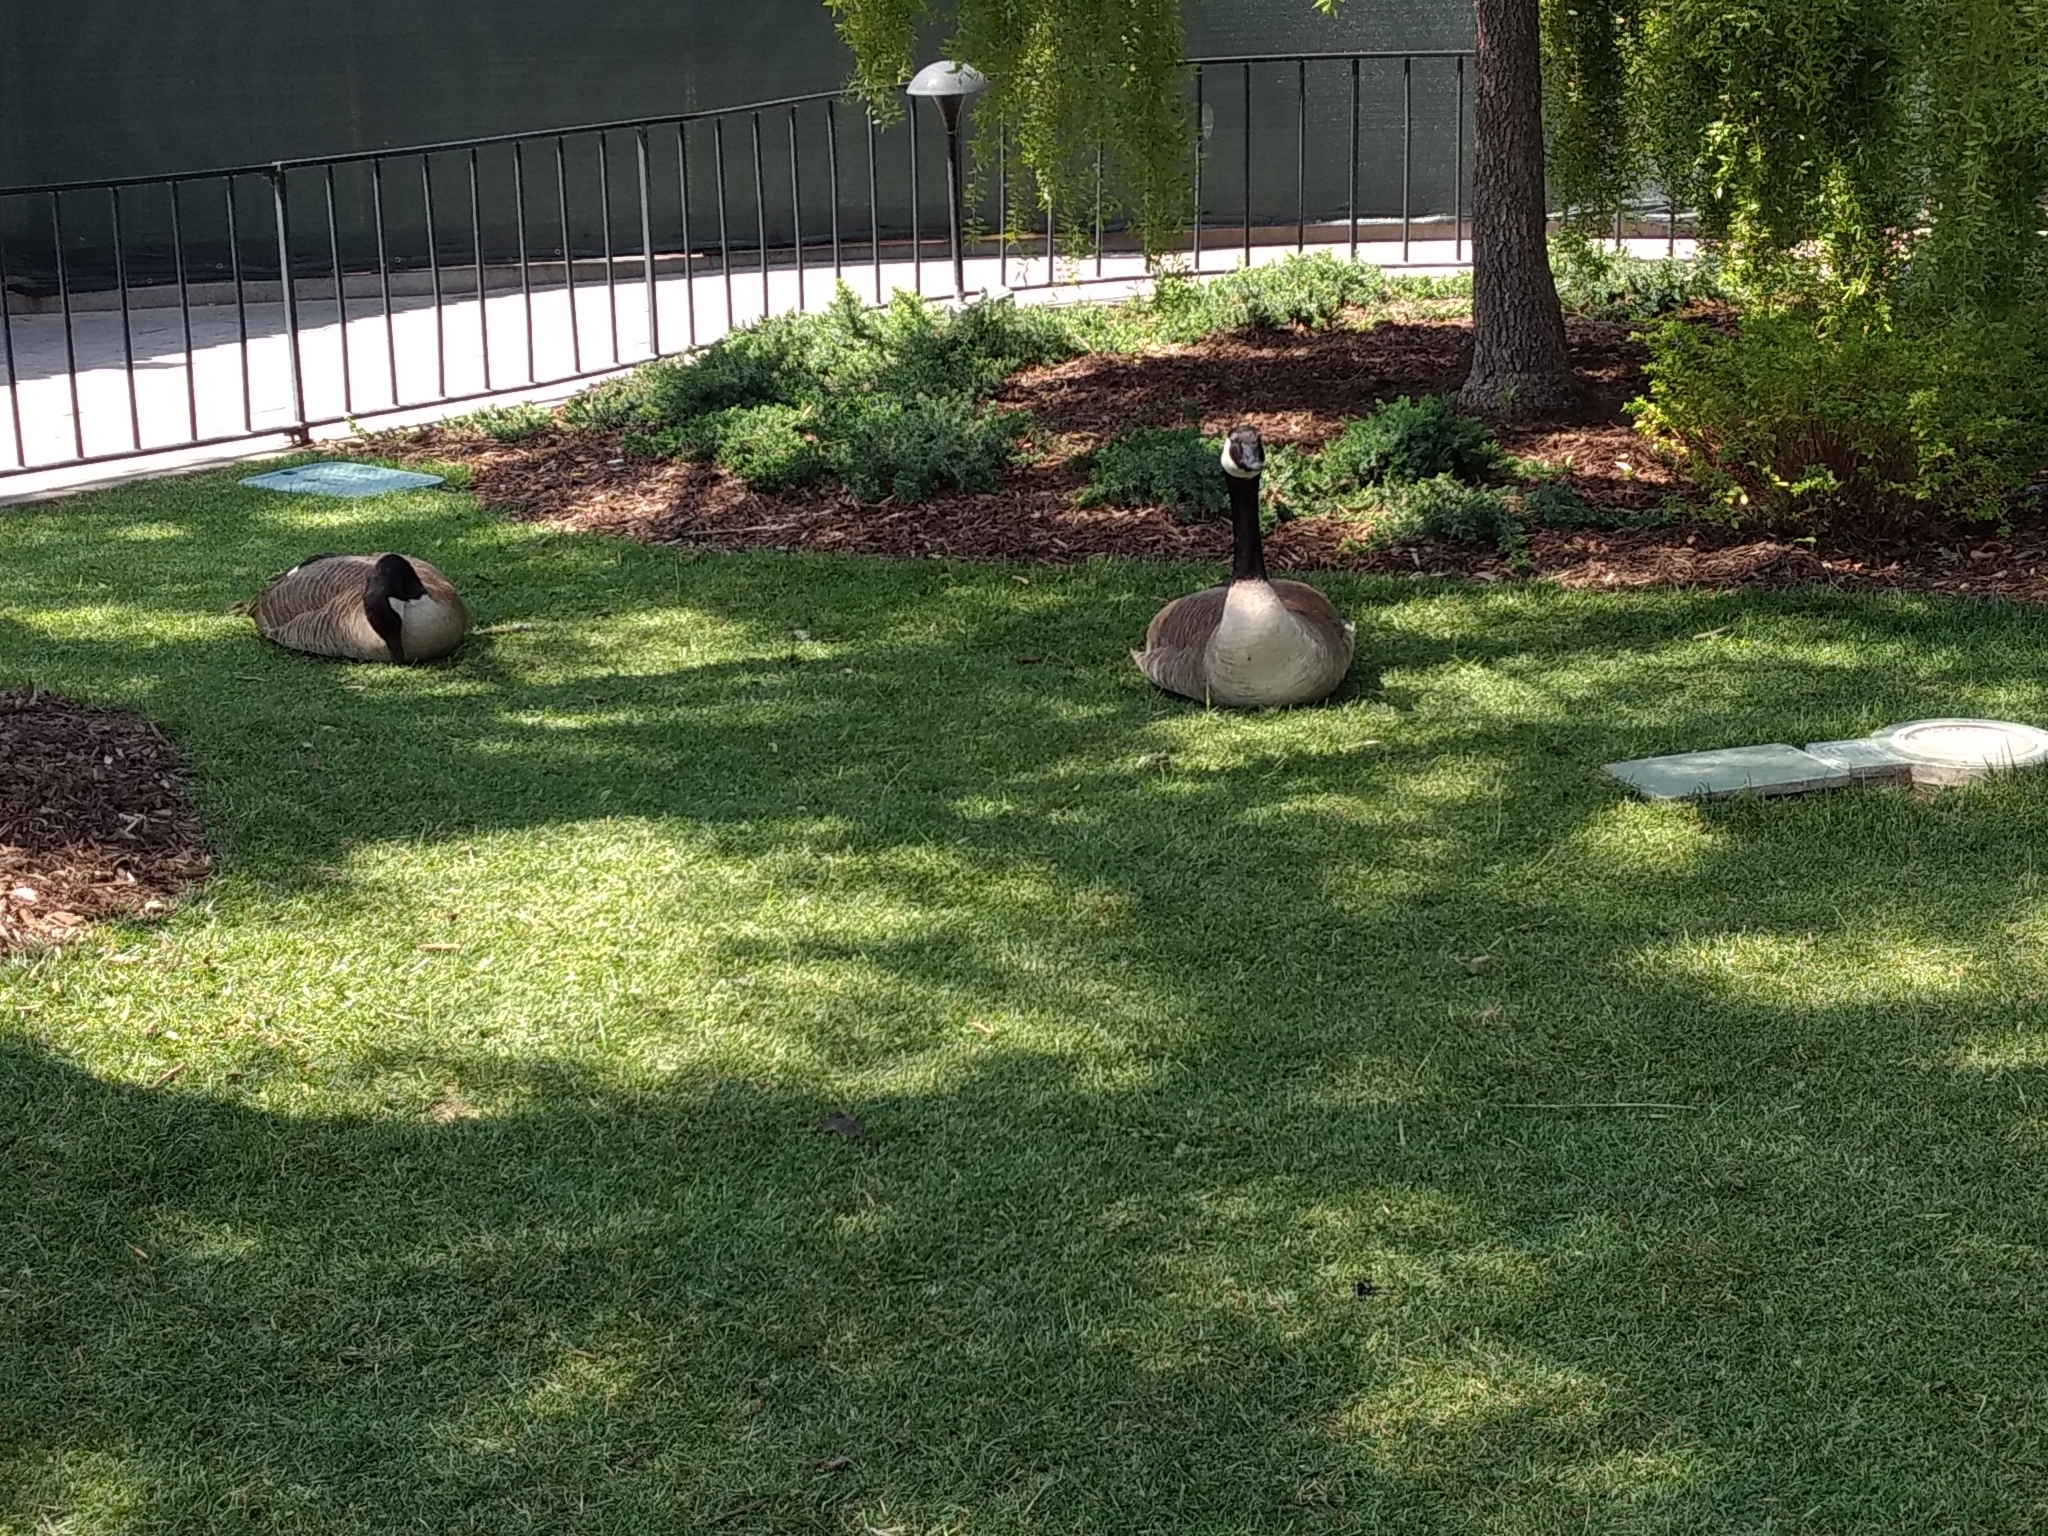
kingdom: Animalia
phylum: Chordata
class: Aves
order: Anseriformes
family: Anatidae
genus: Branta
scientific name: Branta canadensis
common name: Canada goose
